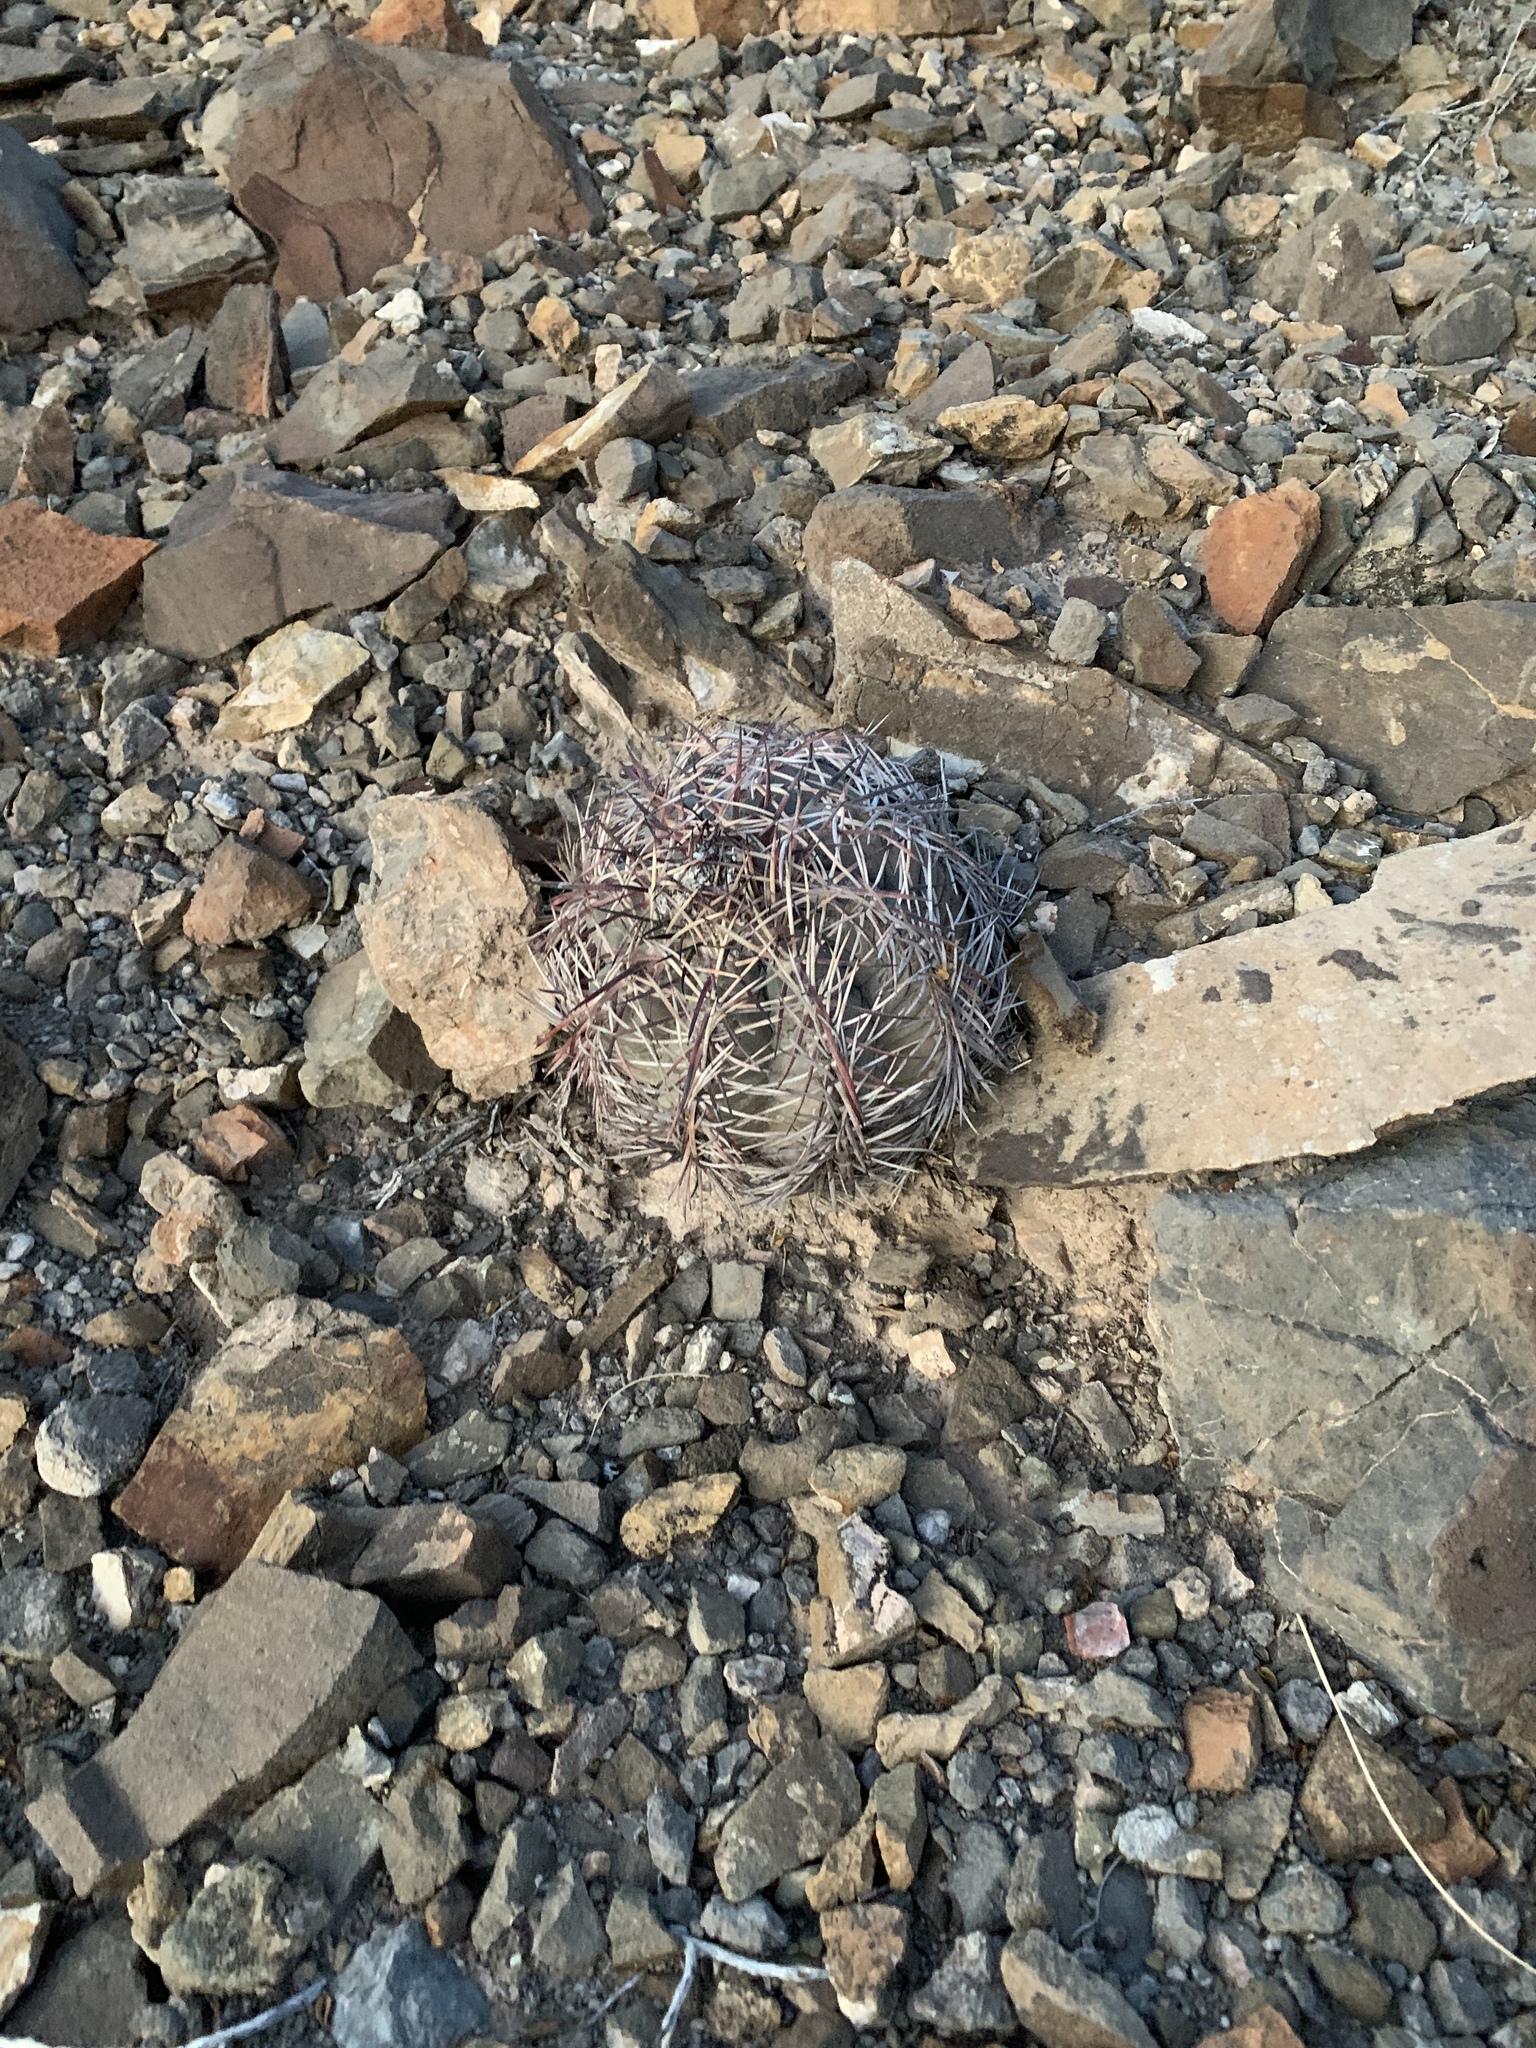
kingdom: Plantae
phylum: Tracheophyta
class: Magnoliopsida
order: Caryophyllales
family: Cactaceae
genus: Echinocactus
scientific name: Echinocactus horizonthalonius
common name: Devilshead
